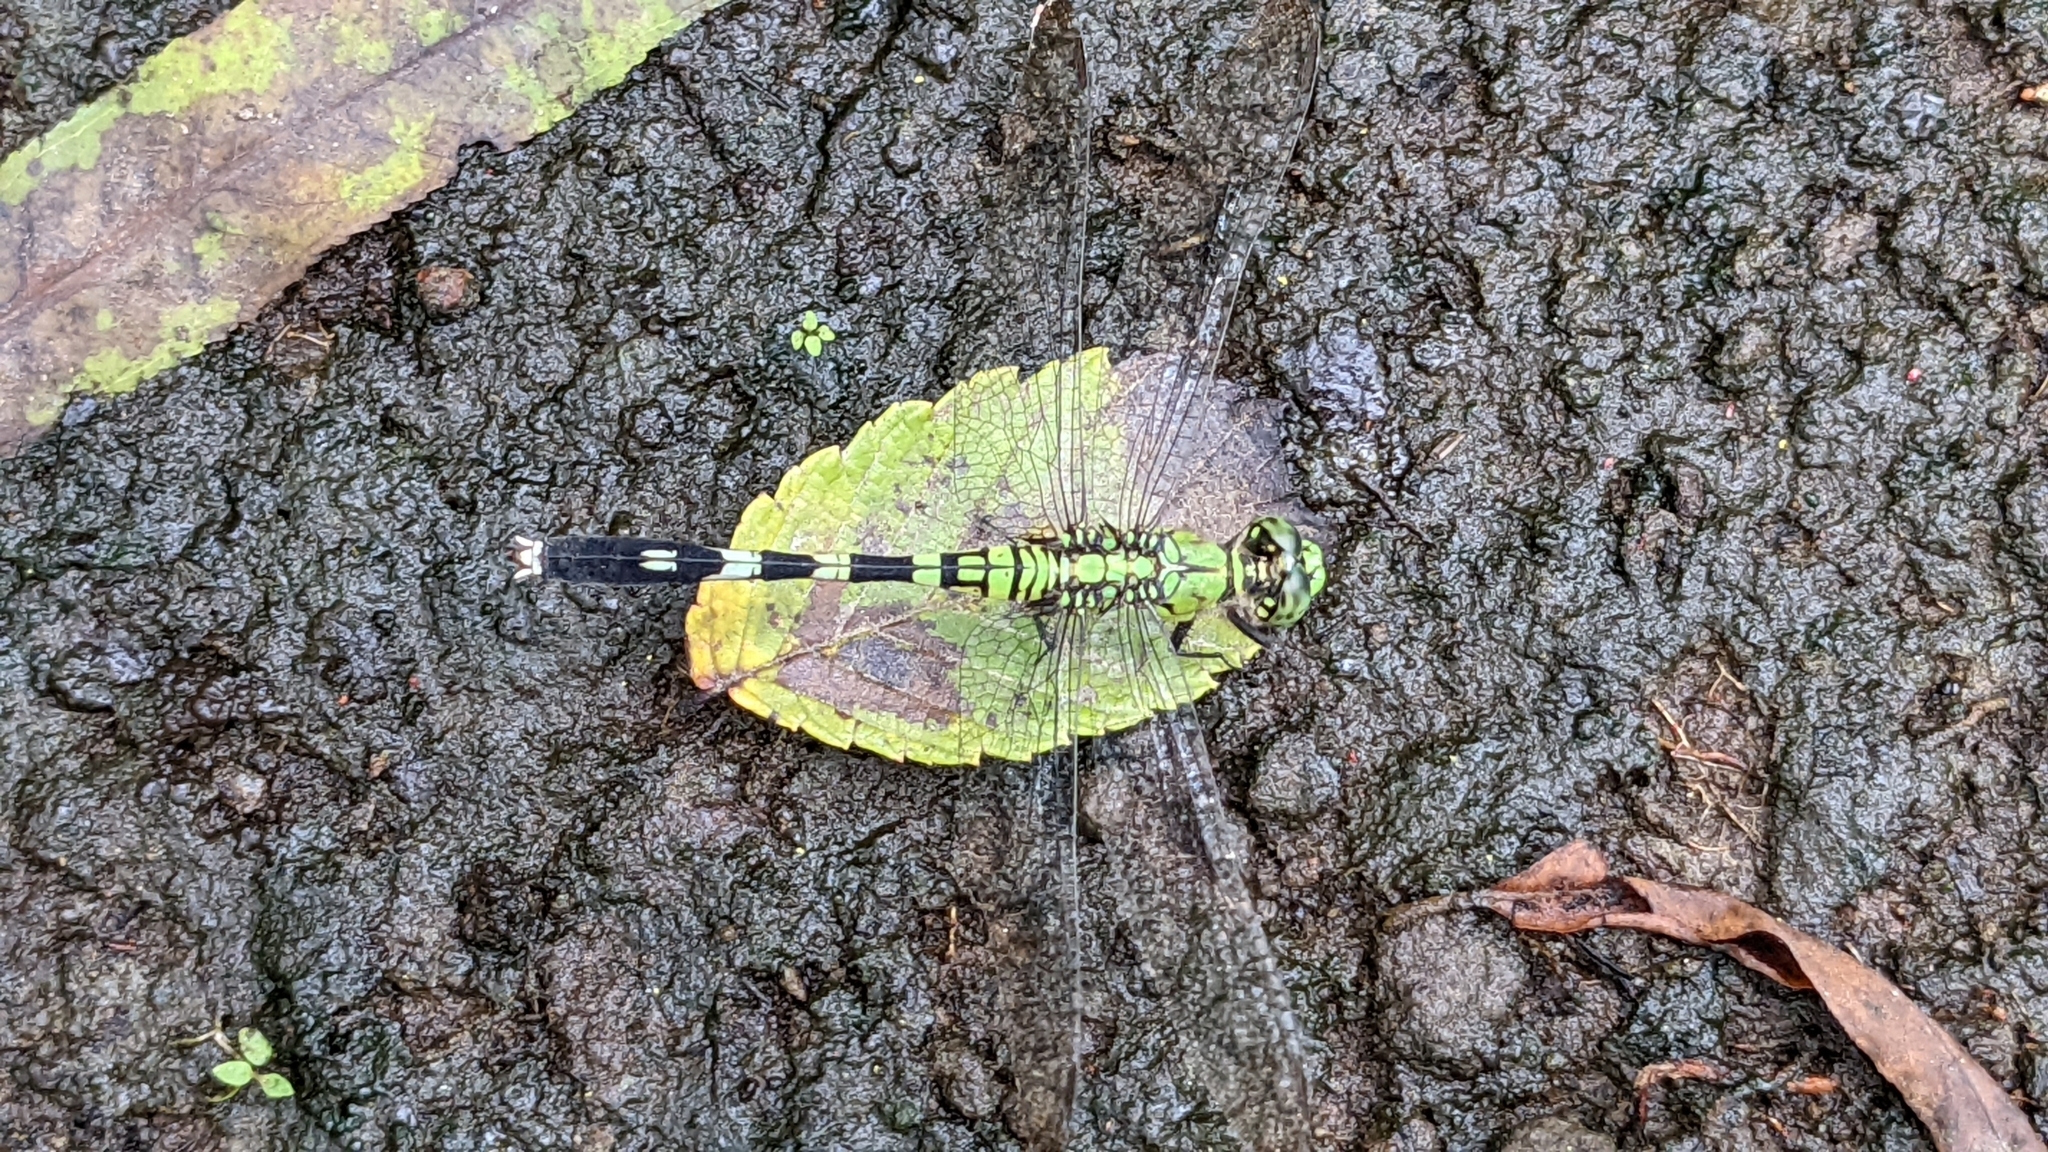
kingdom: Animalia
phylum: Arthropoda
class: Insecta
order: Odonata
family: Libellulidae
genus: Erythemis
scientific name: Erythemis simplicicollis
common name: Eastern pondhawk
